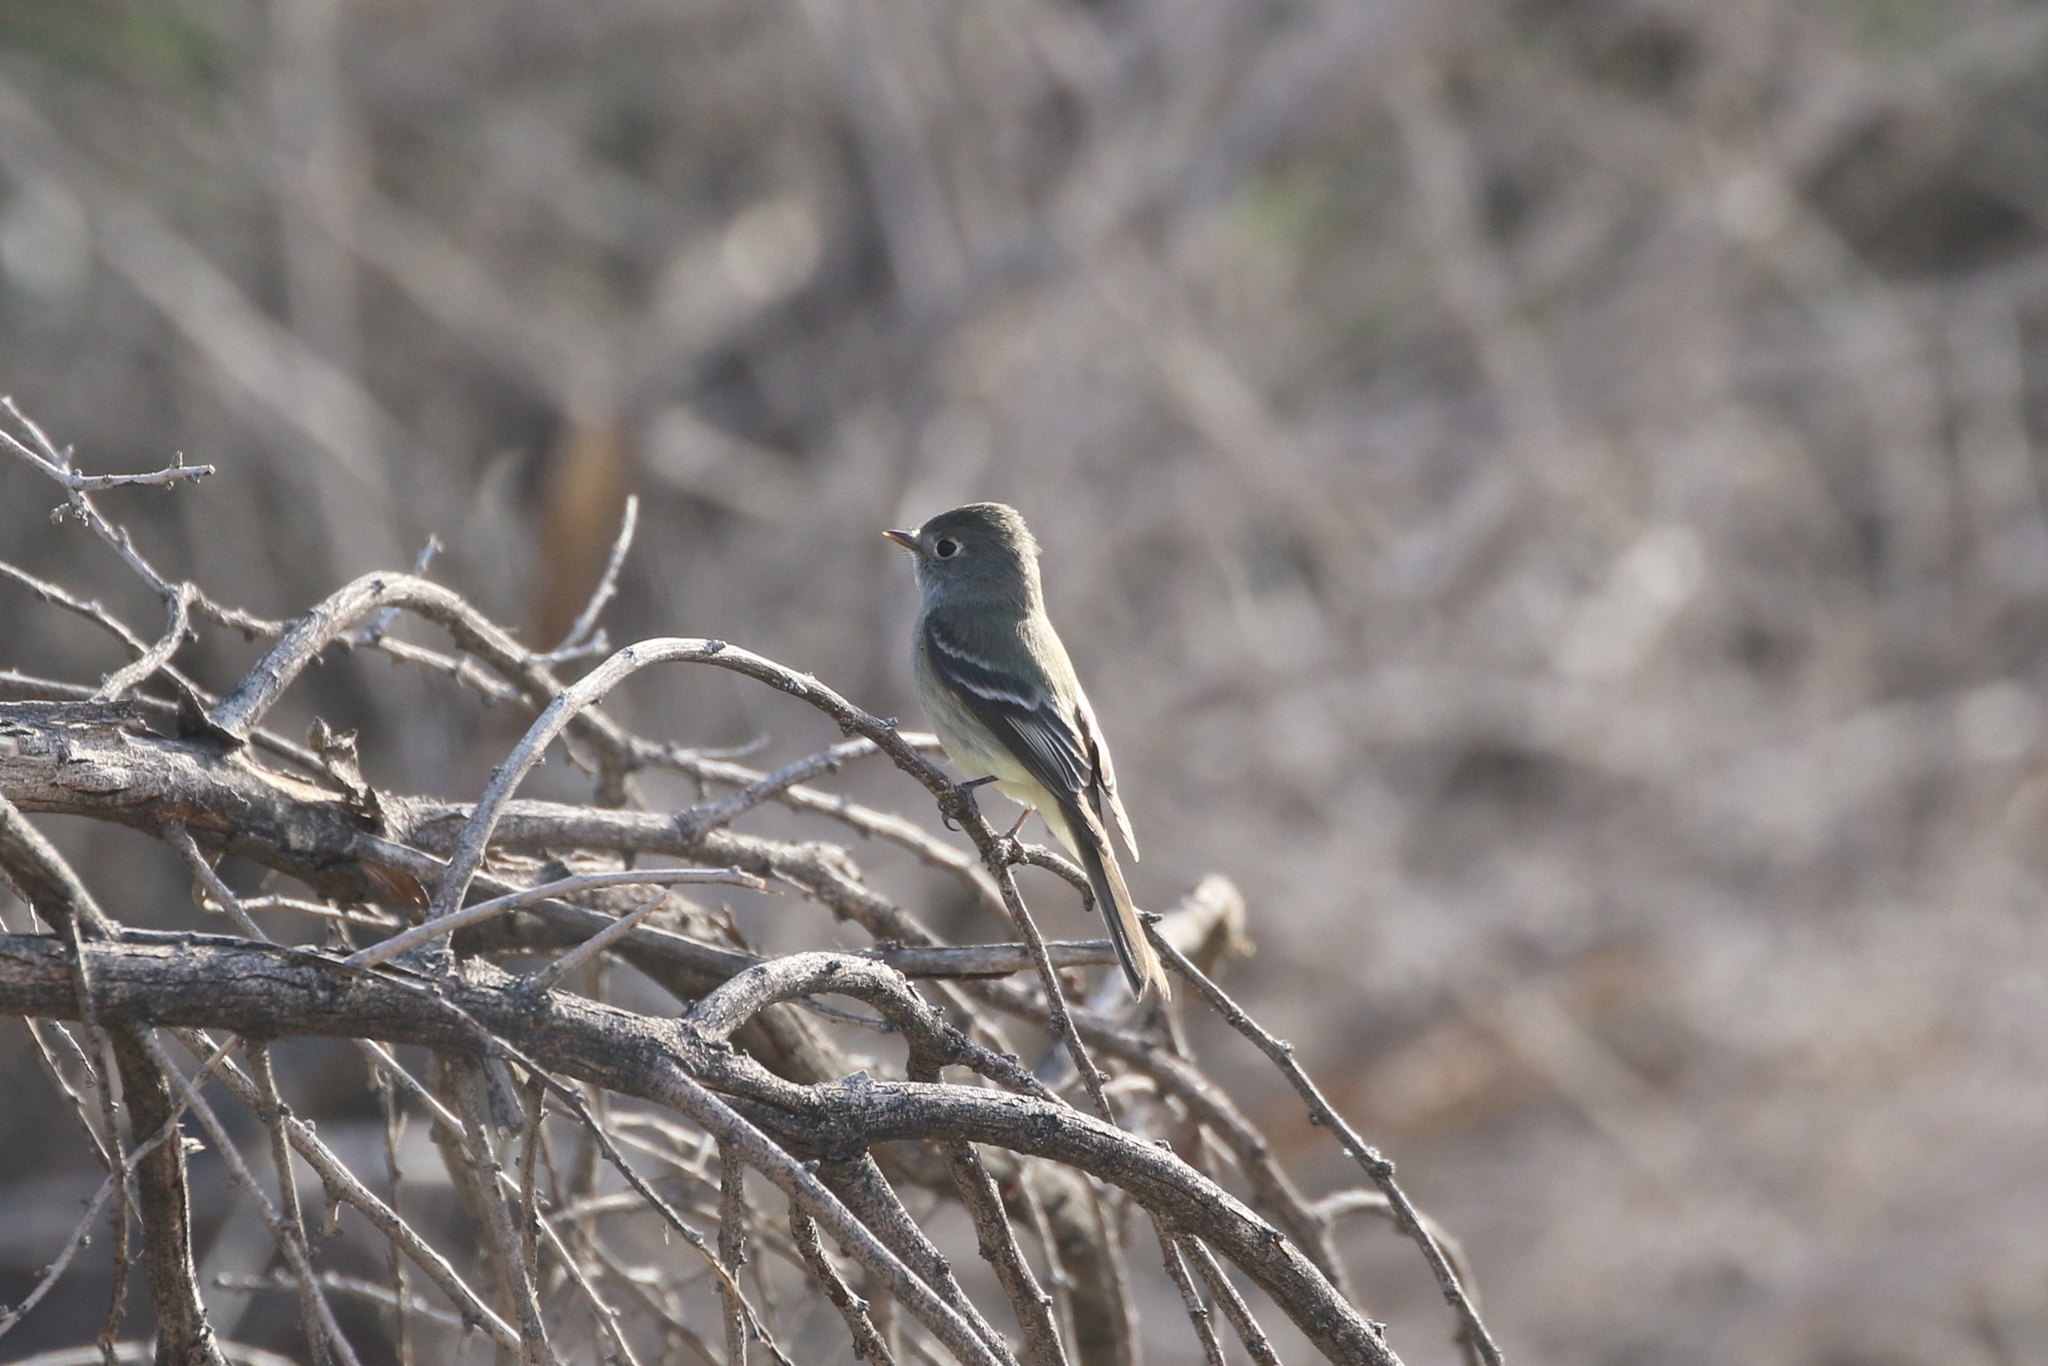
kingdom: Animalia
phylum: Chordata
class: Aves
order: Passeriformes
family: Tyrannidae
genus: Empidonax
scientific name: Empidonax hammondii
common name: Hammond's flycatcher
